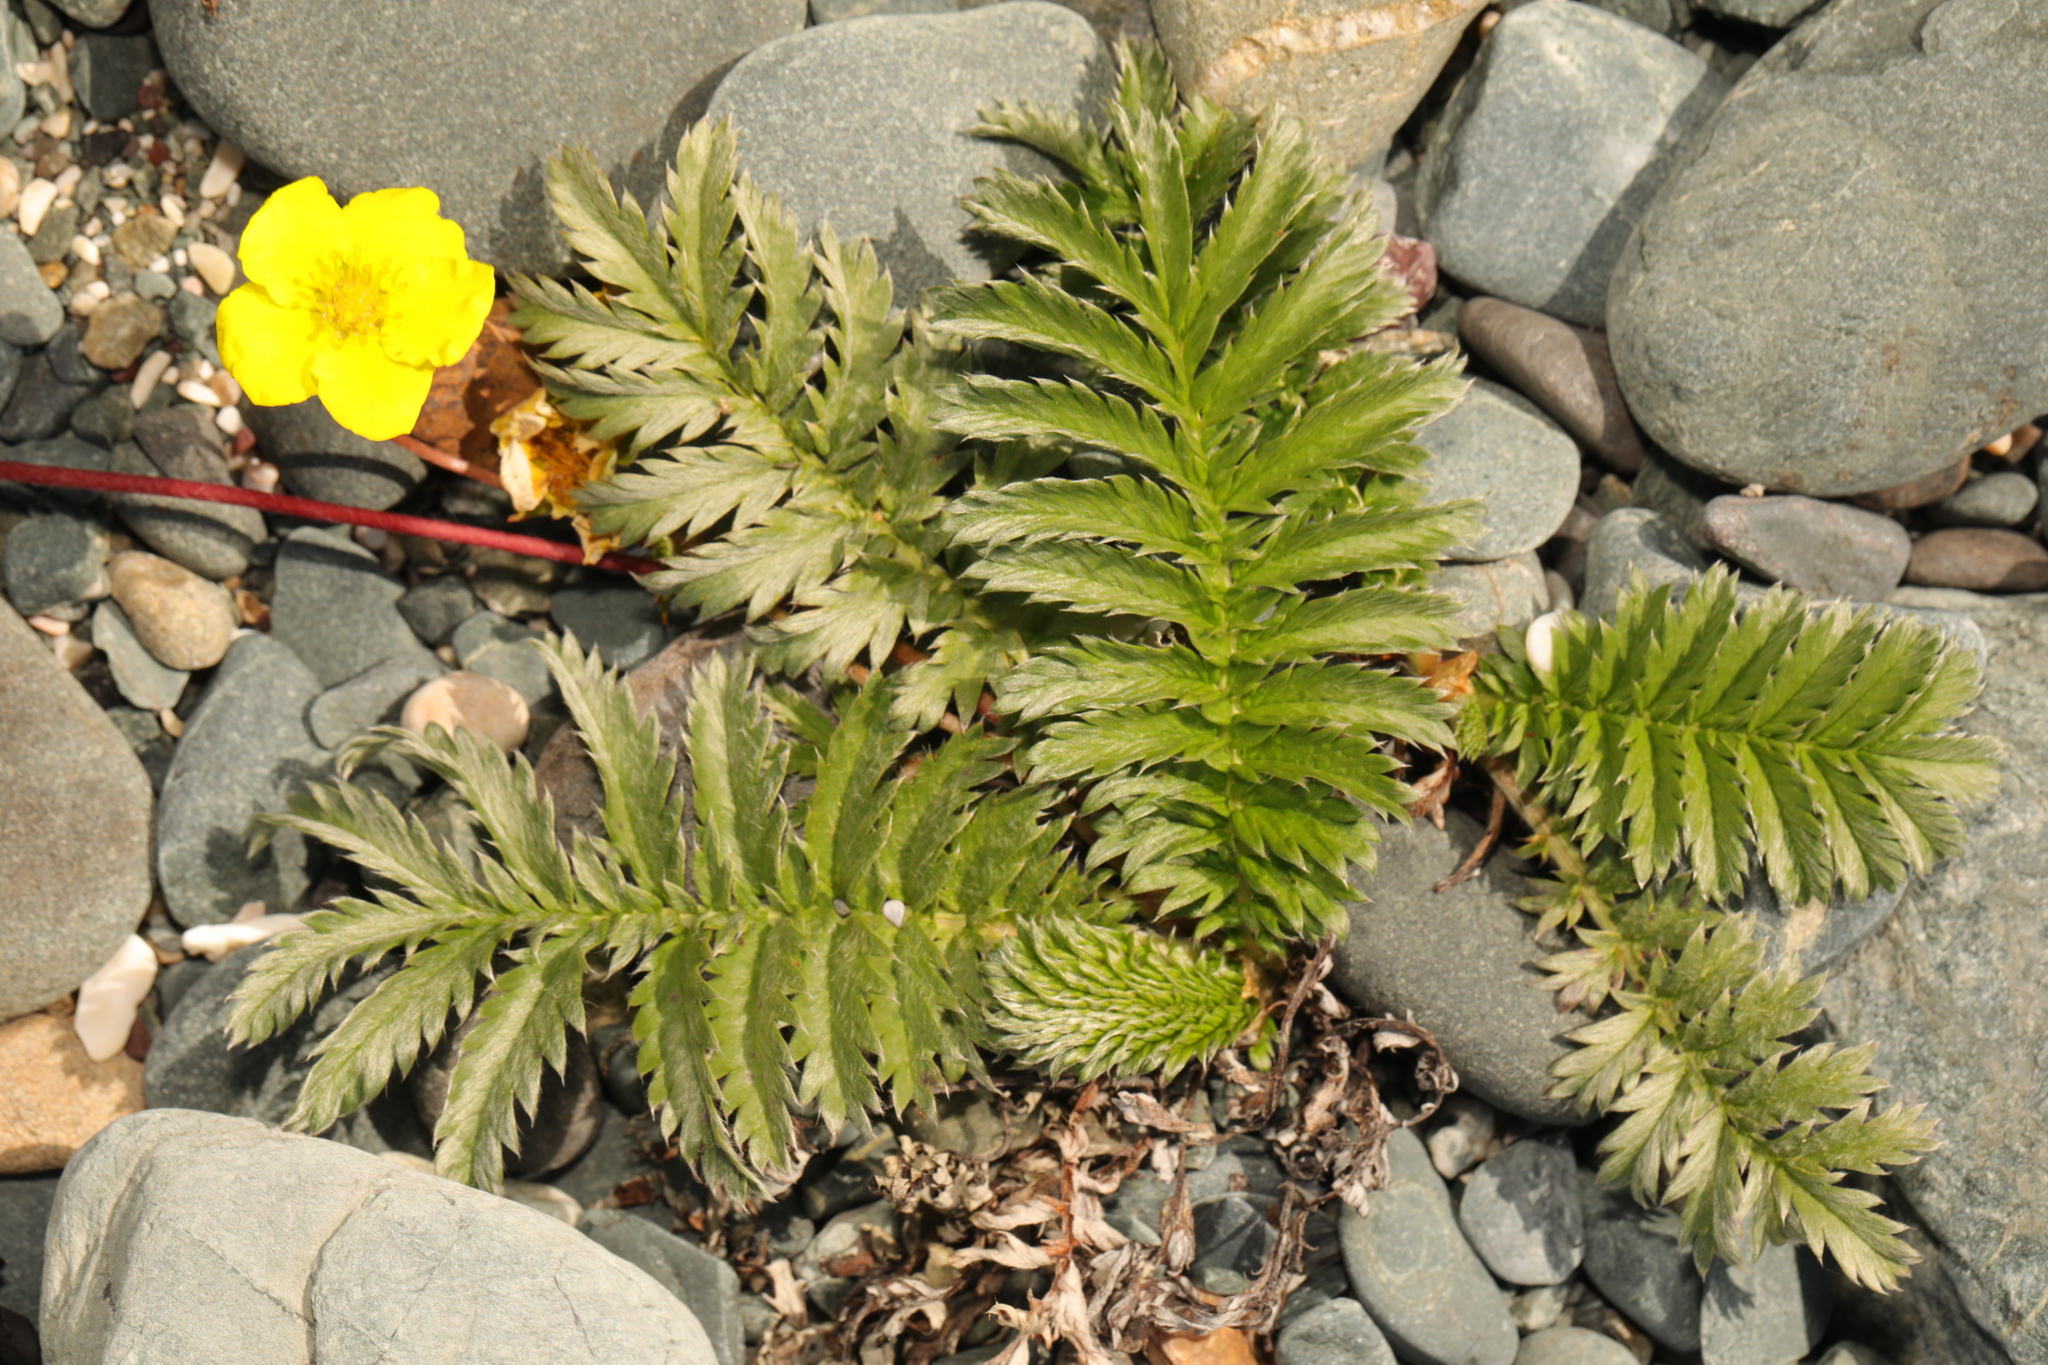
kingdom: Plantae
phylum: Tracheophyta
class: Magnoliopsida
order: Rosales
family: Rosaceae
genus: Argentina
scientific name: Argentina anserina
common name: Common silverweed
